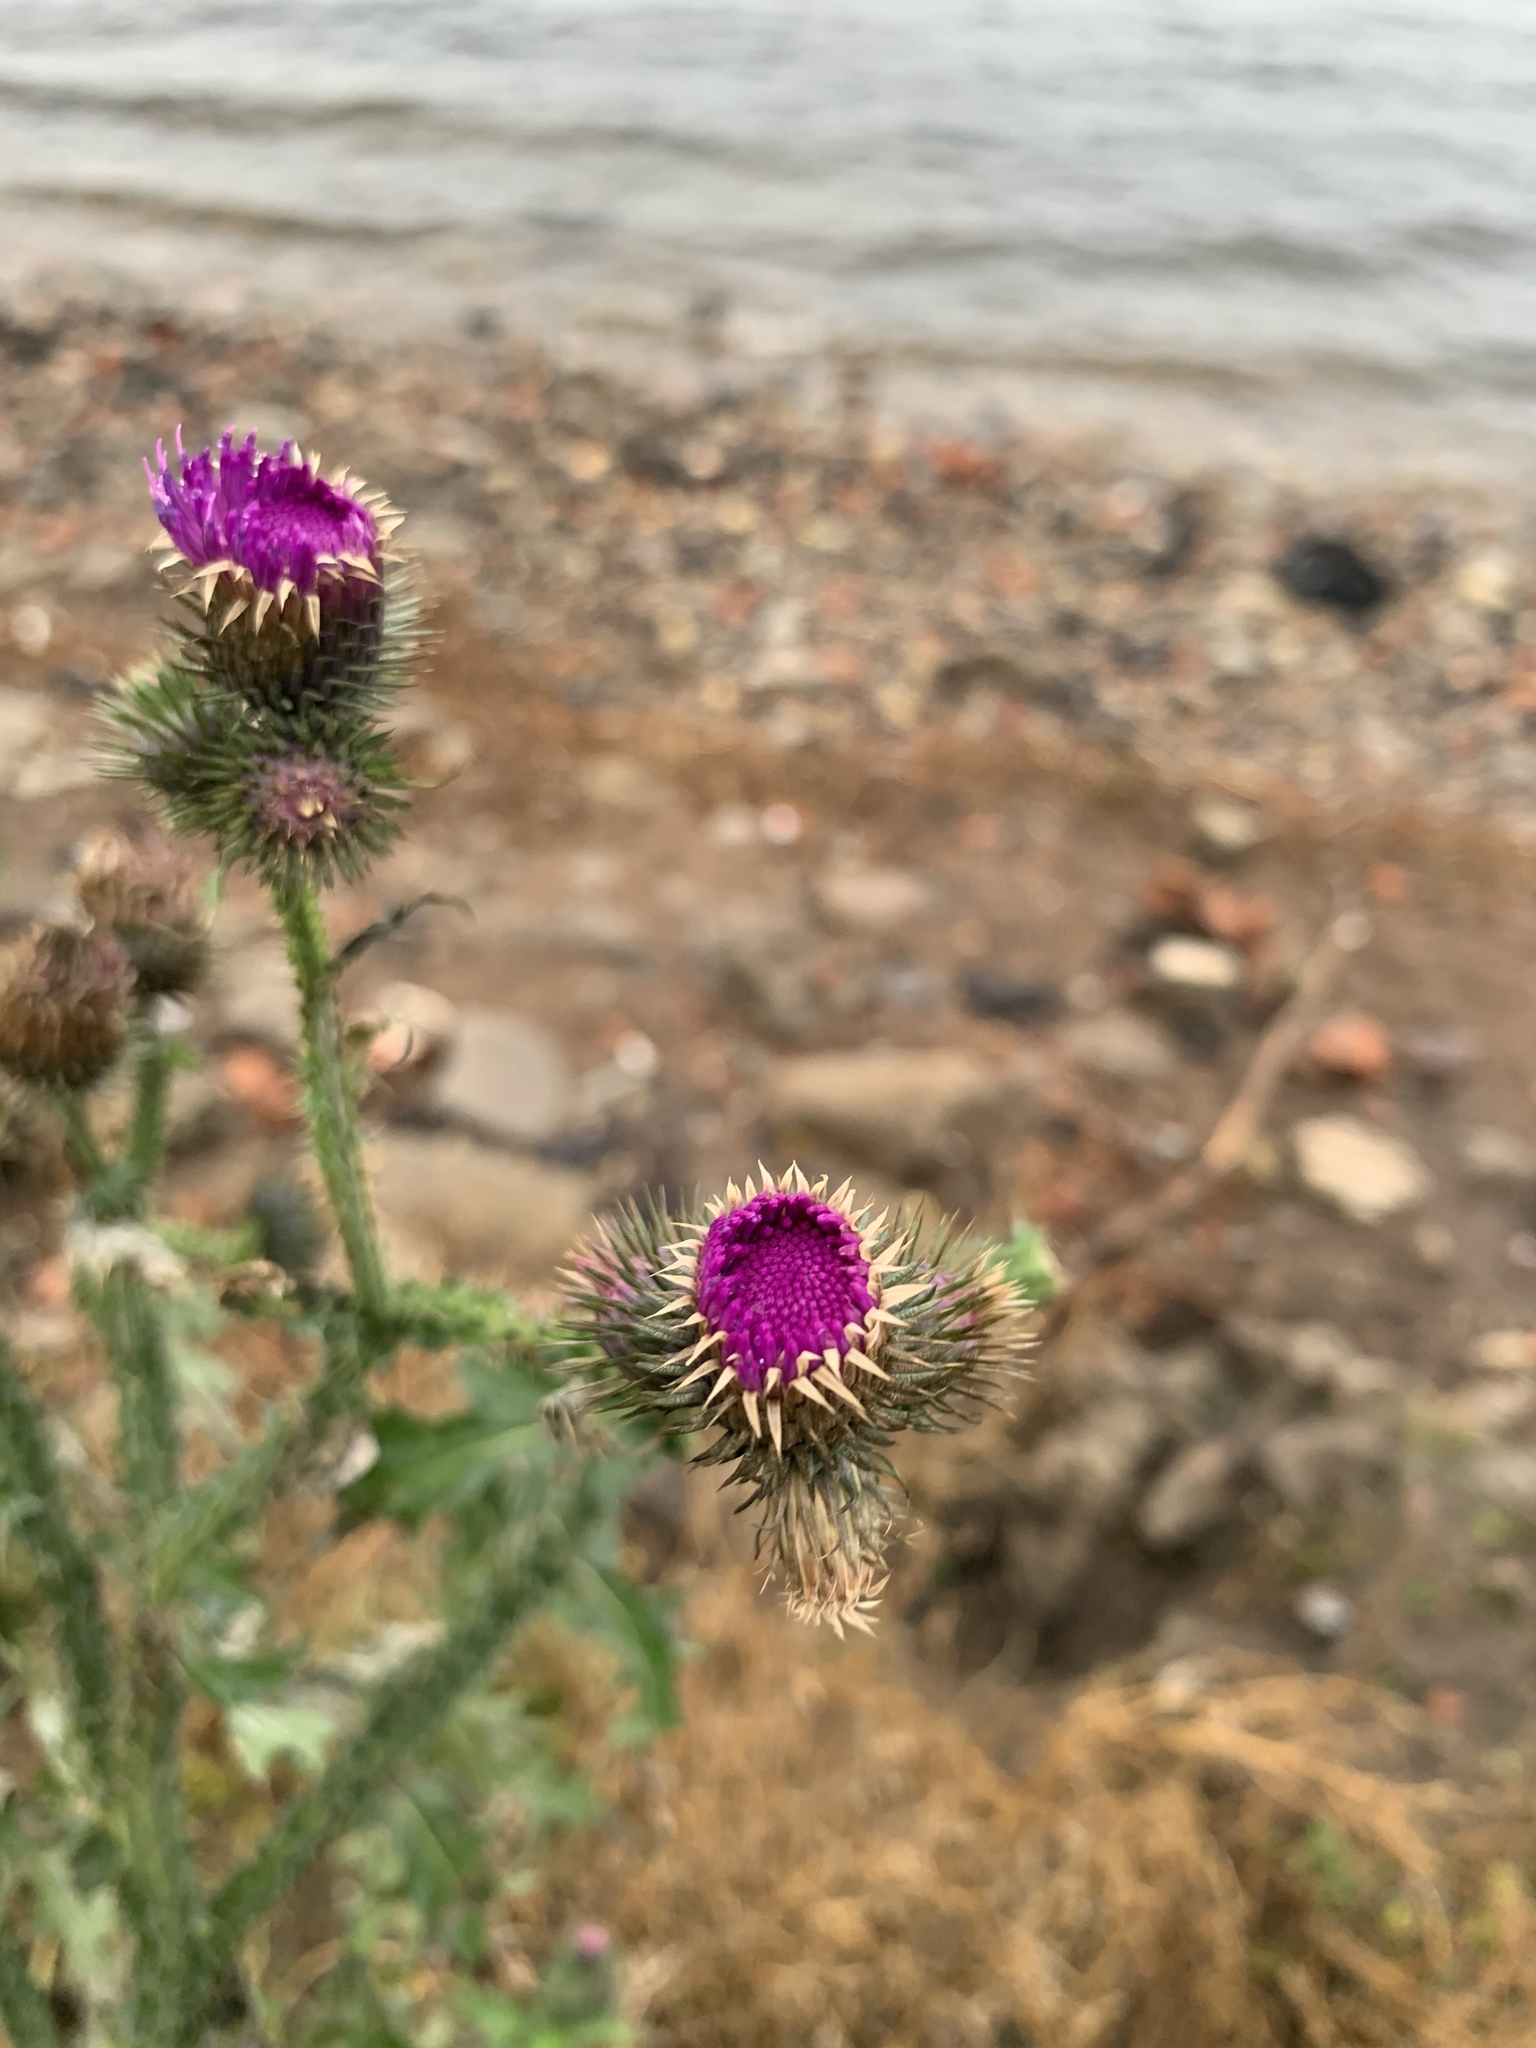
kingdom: Plantae
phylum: Tracheophyta
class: Magnoliopsida
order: Asterales
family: Asteraceae
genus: Carduus
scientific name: Carduus crispus
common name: Welted thistle
